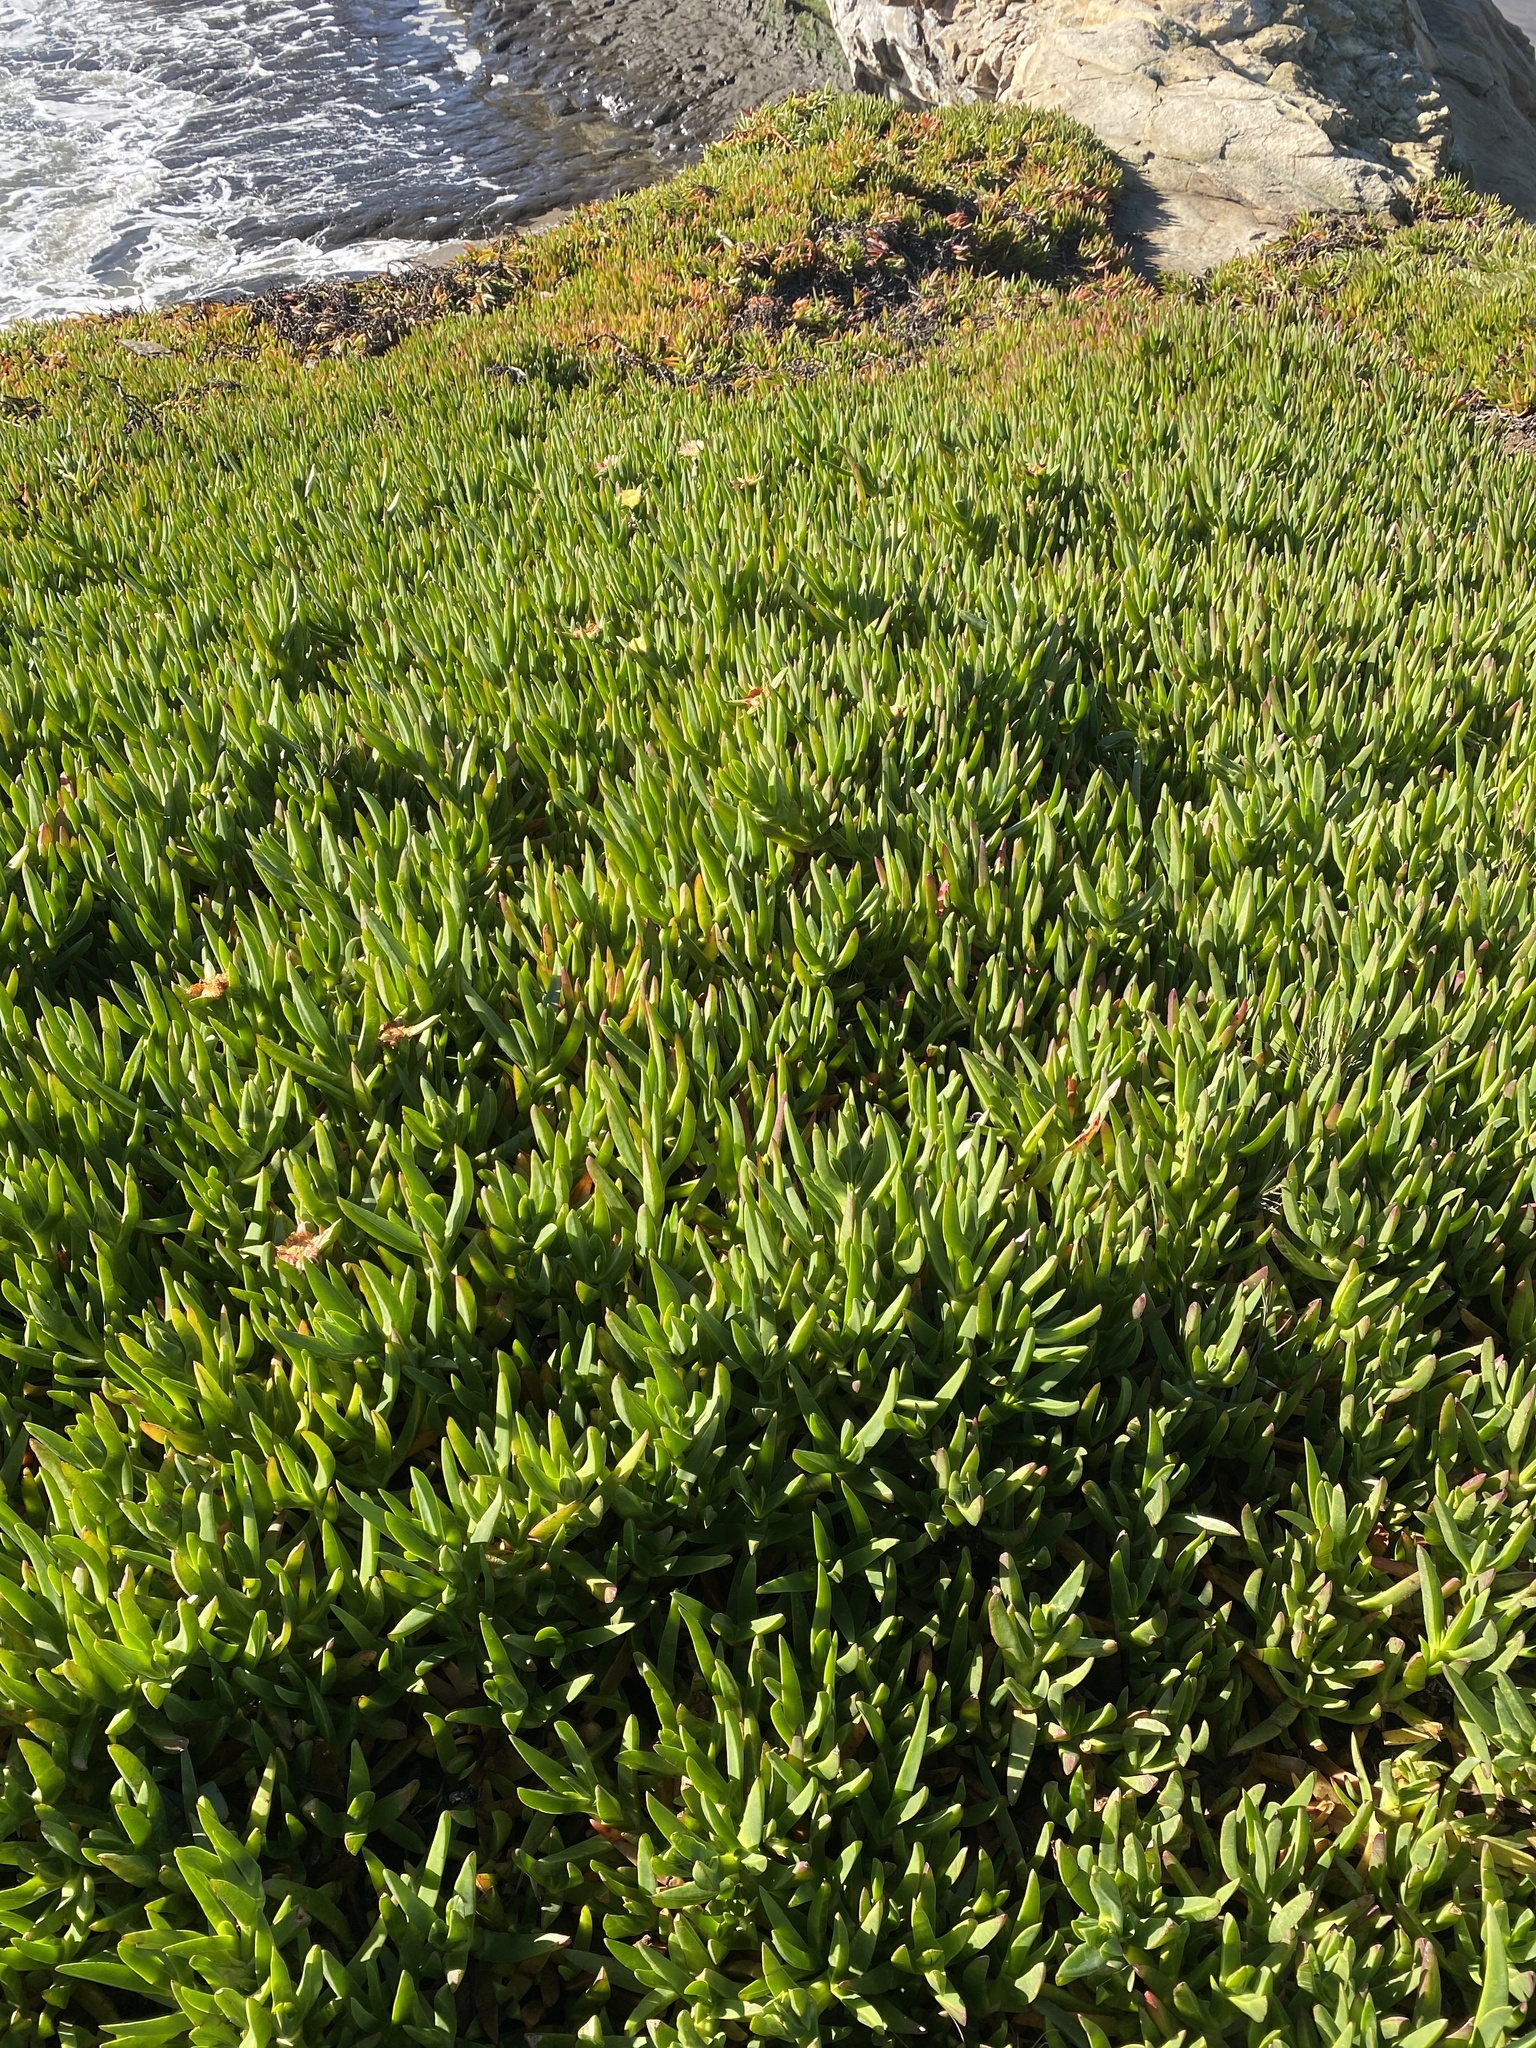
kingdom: Plantae
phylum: Tracheophyta
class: Magnoliopsida
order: Caryophyllales
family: Aizoaceae
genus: Carpobrotus
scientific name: Carpobrotus edulis
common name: Hottentot-fig
